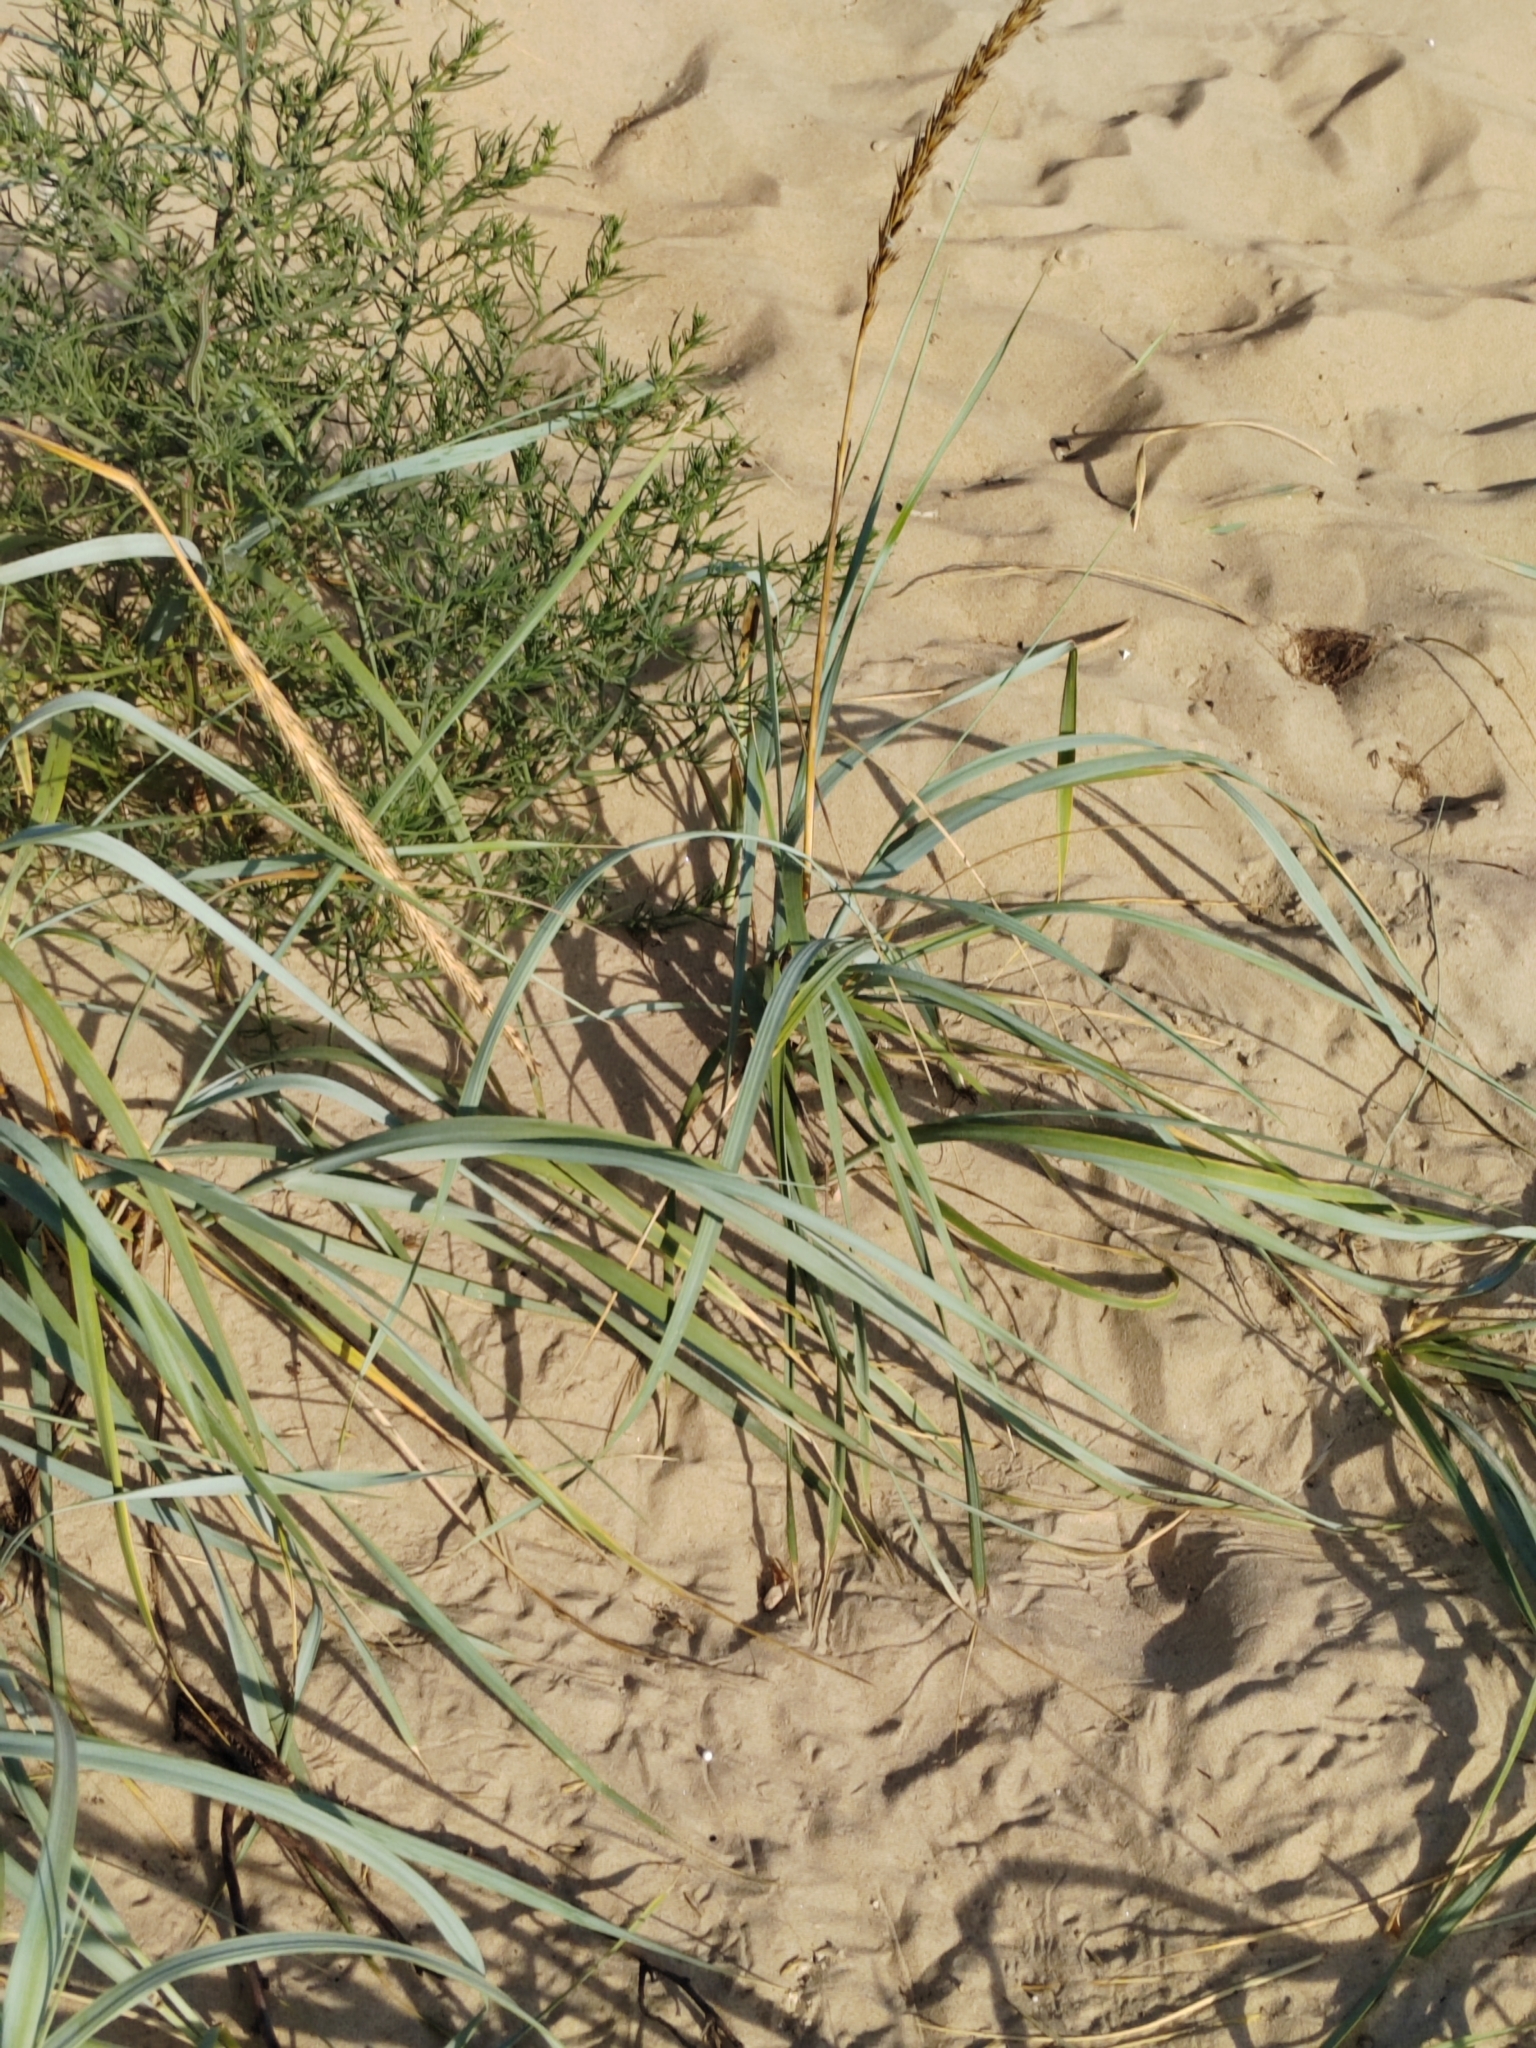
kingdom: Plantae
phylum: Tracheophyta
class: Liliopsida
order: Poales
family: Poaceae
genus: Leymus
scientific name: Leymus racemosus
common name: Mammoth wildrye
